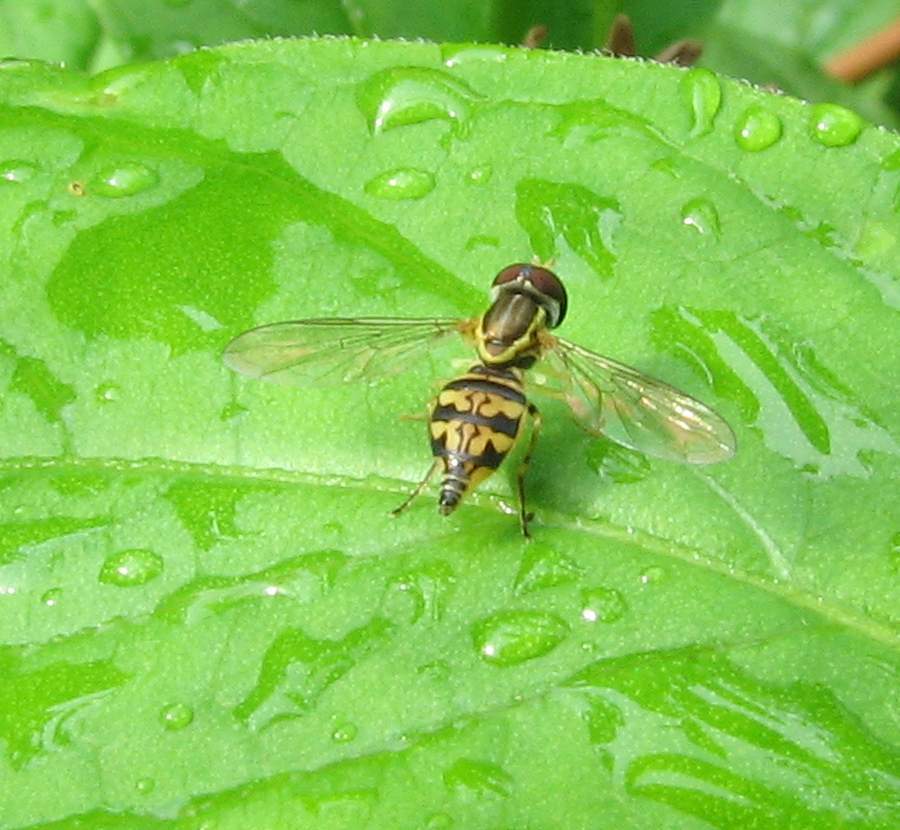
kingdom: Animalia
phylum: Arthropoda
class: Insecta
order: Diptera
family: Syrphidae
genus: Toxomerus
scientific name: Toxomerus geminatus
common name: Eastern calligrapher
